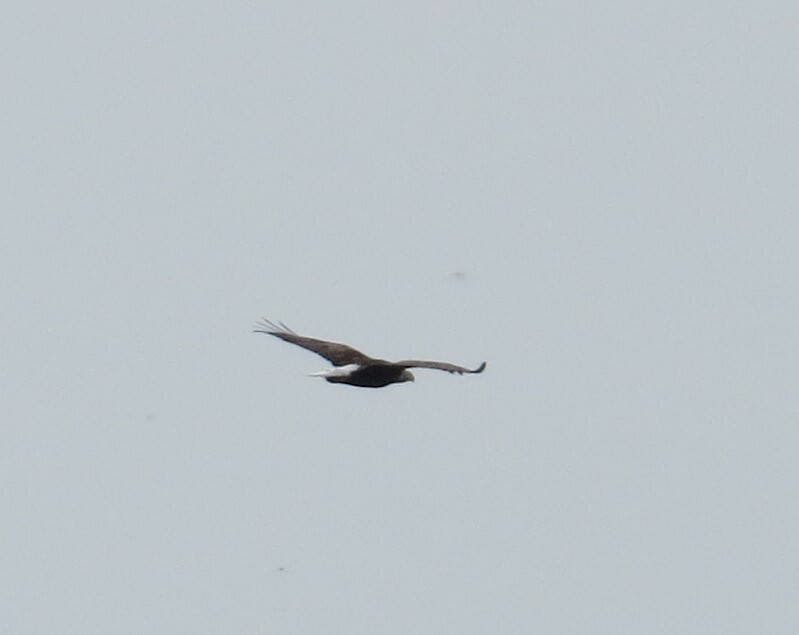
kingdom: Animalia
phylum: Chordata
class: Aves
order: Accipitriformes
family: Accipitridae
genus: Haliaeetus
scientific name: Haliaeetus leucocephalus
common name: Bald eagle
